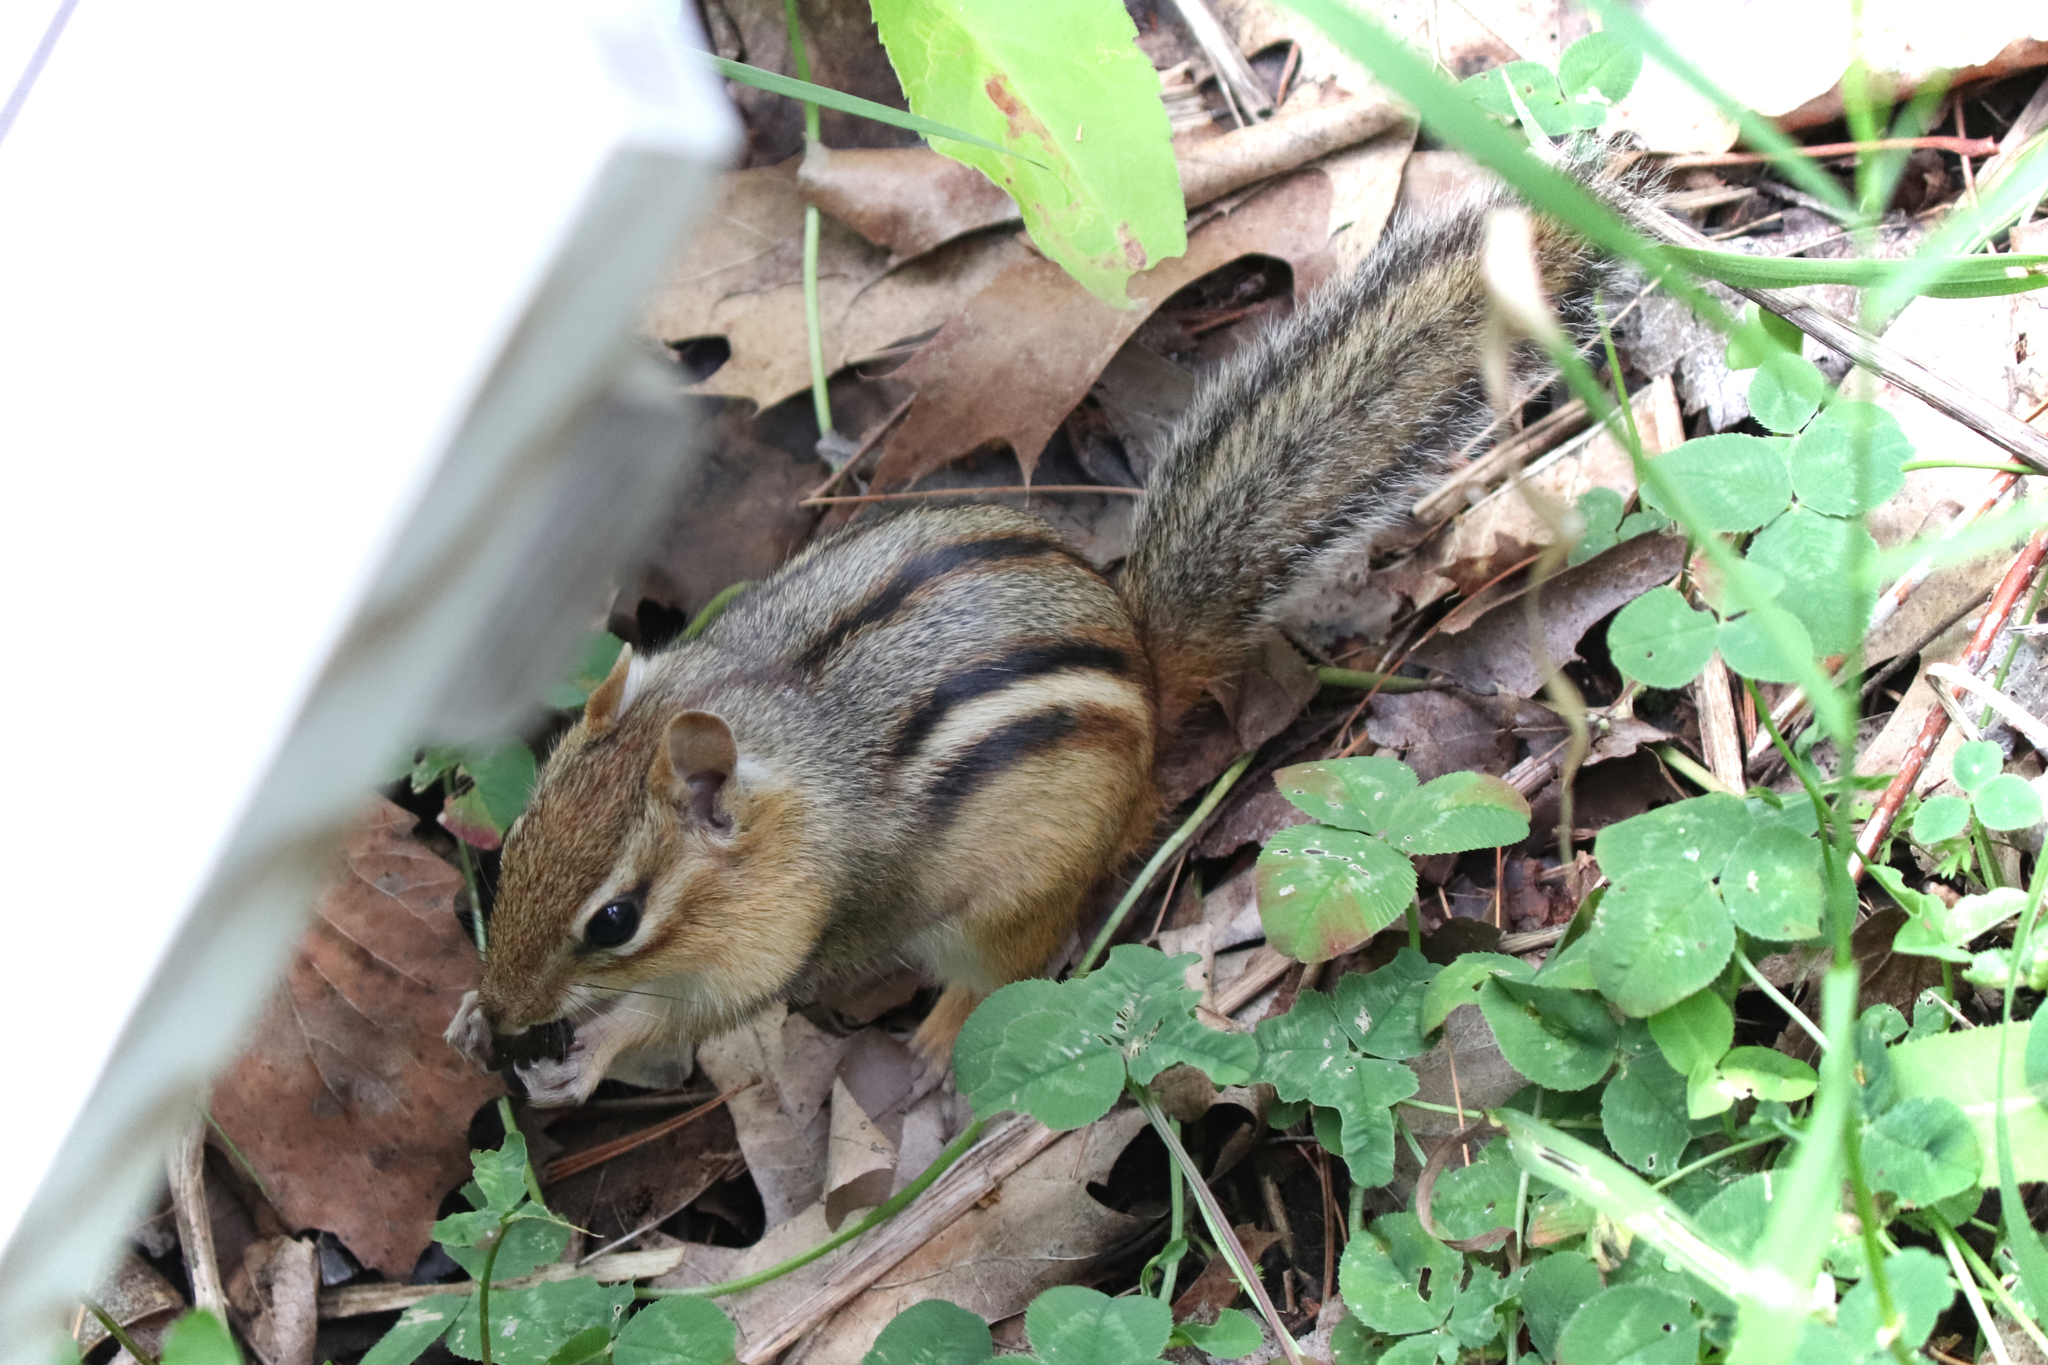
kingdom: Animalia
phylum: Chordata
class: Mammalia
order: Rodentia
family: Sciuridae
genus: Tamias
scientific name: Tamias striatus
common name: Eastern chipmunk
